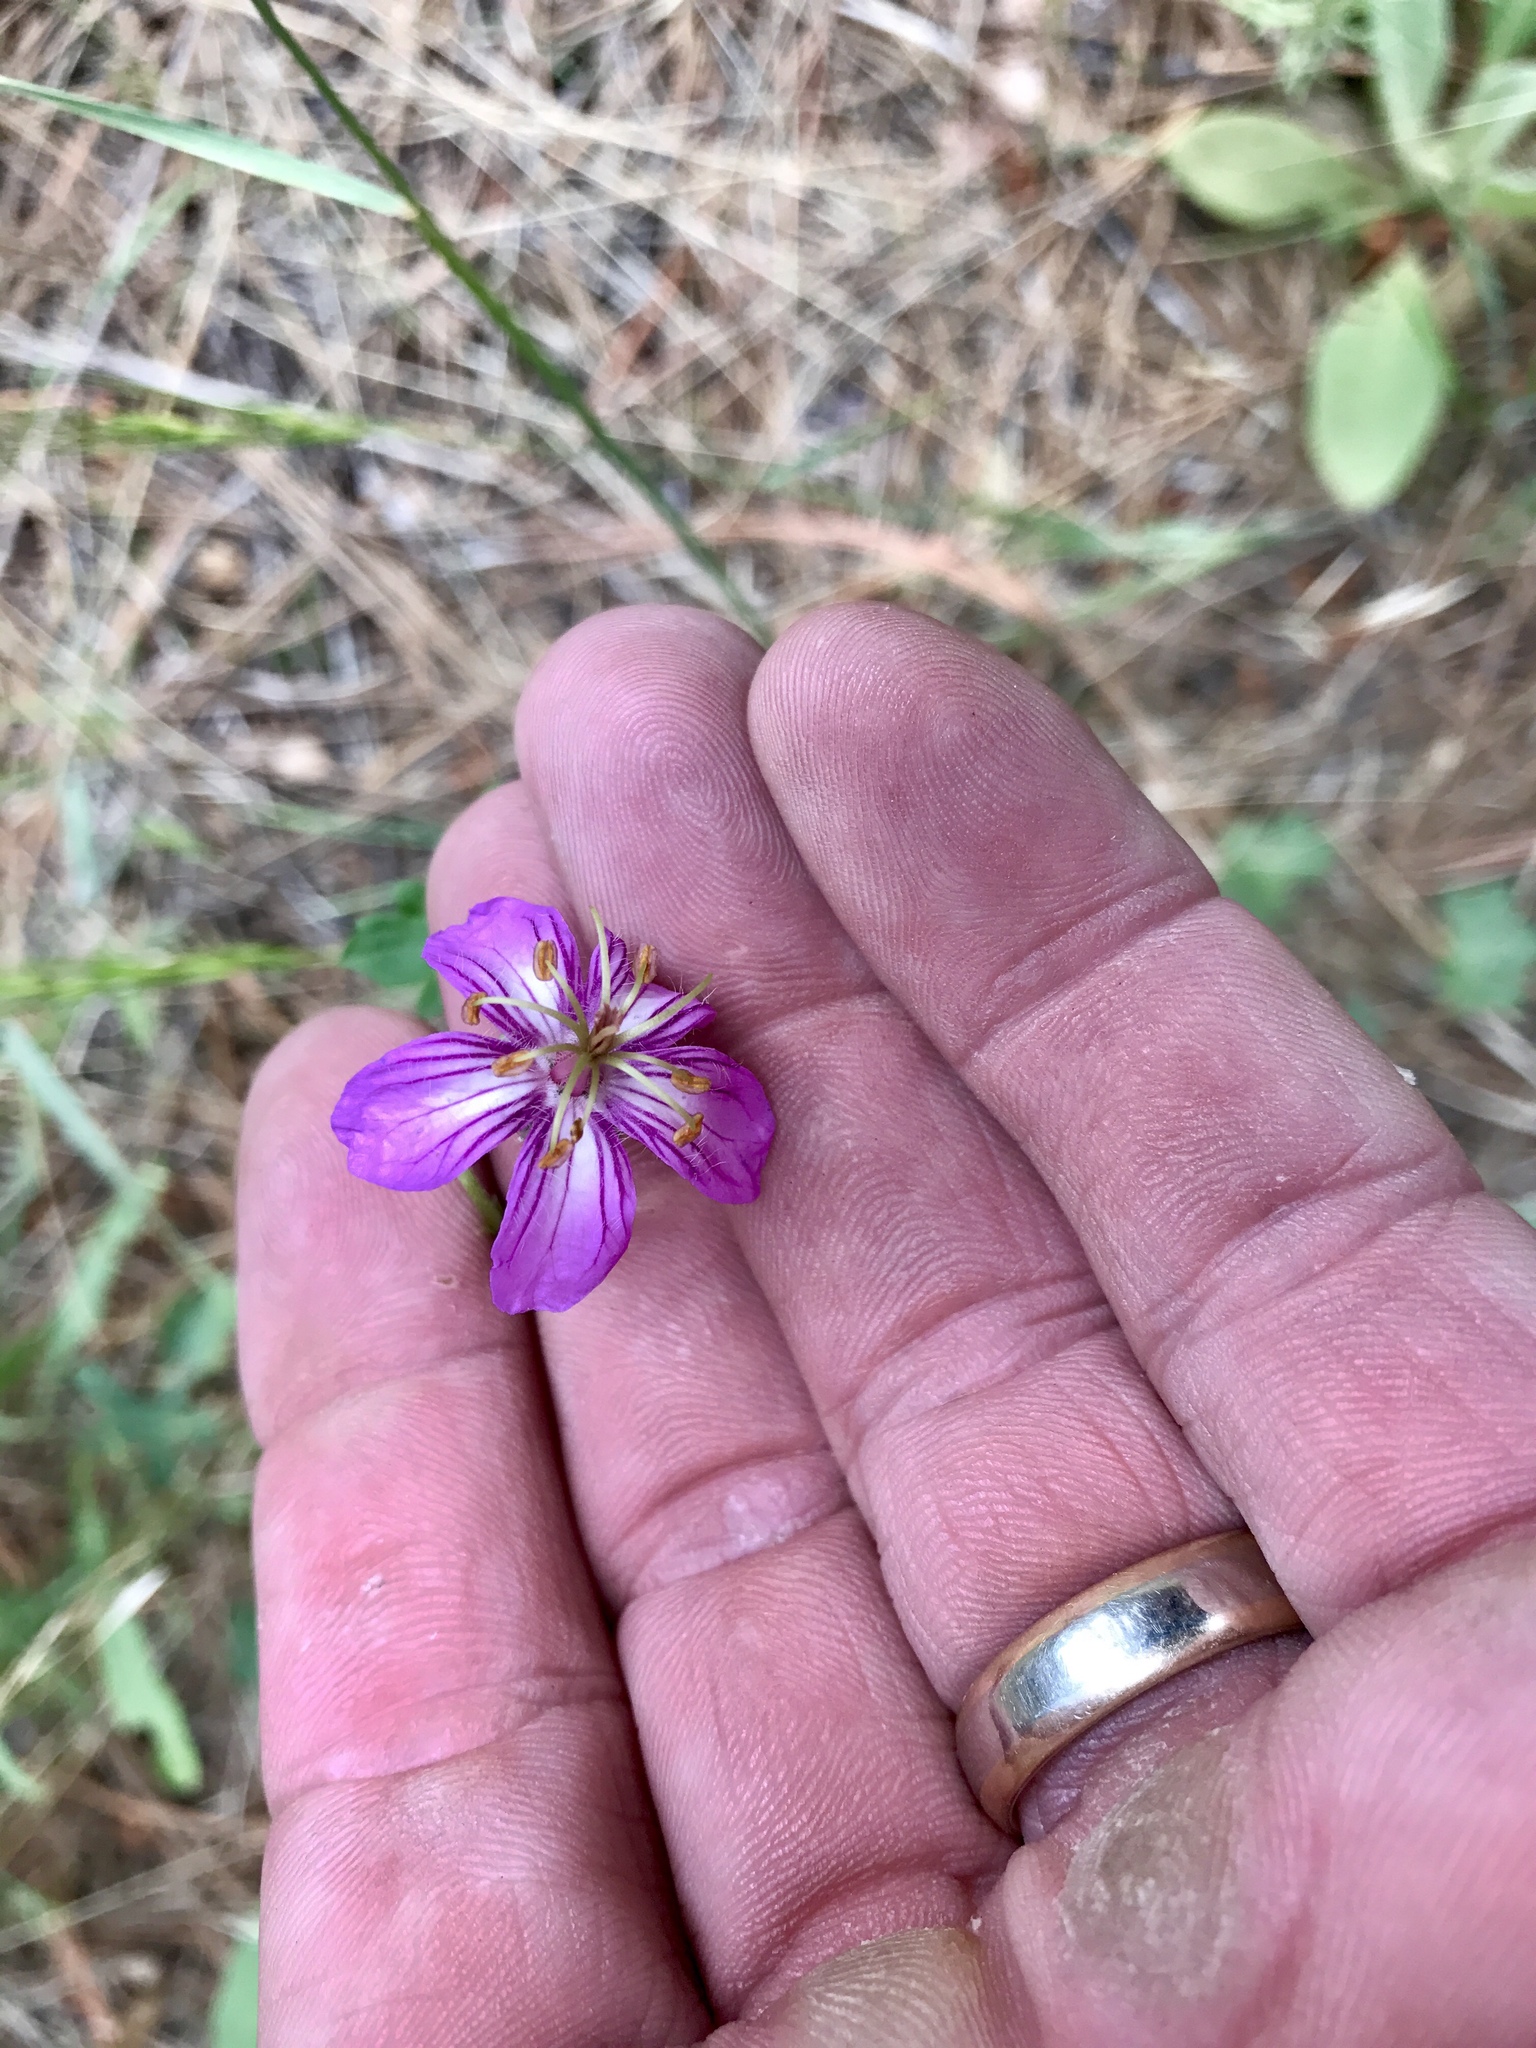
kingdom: Plantae
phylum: Tracheophyta
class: Magnoliopsida
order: Geraniales
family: Geraniaceae
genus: Geranium
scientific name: Geranium caespitosum
